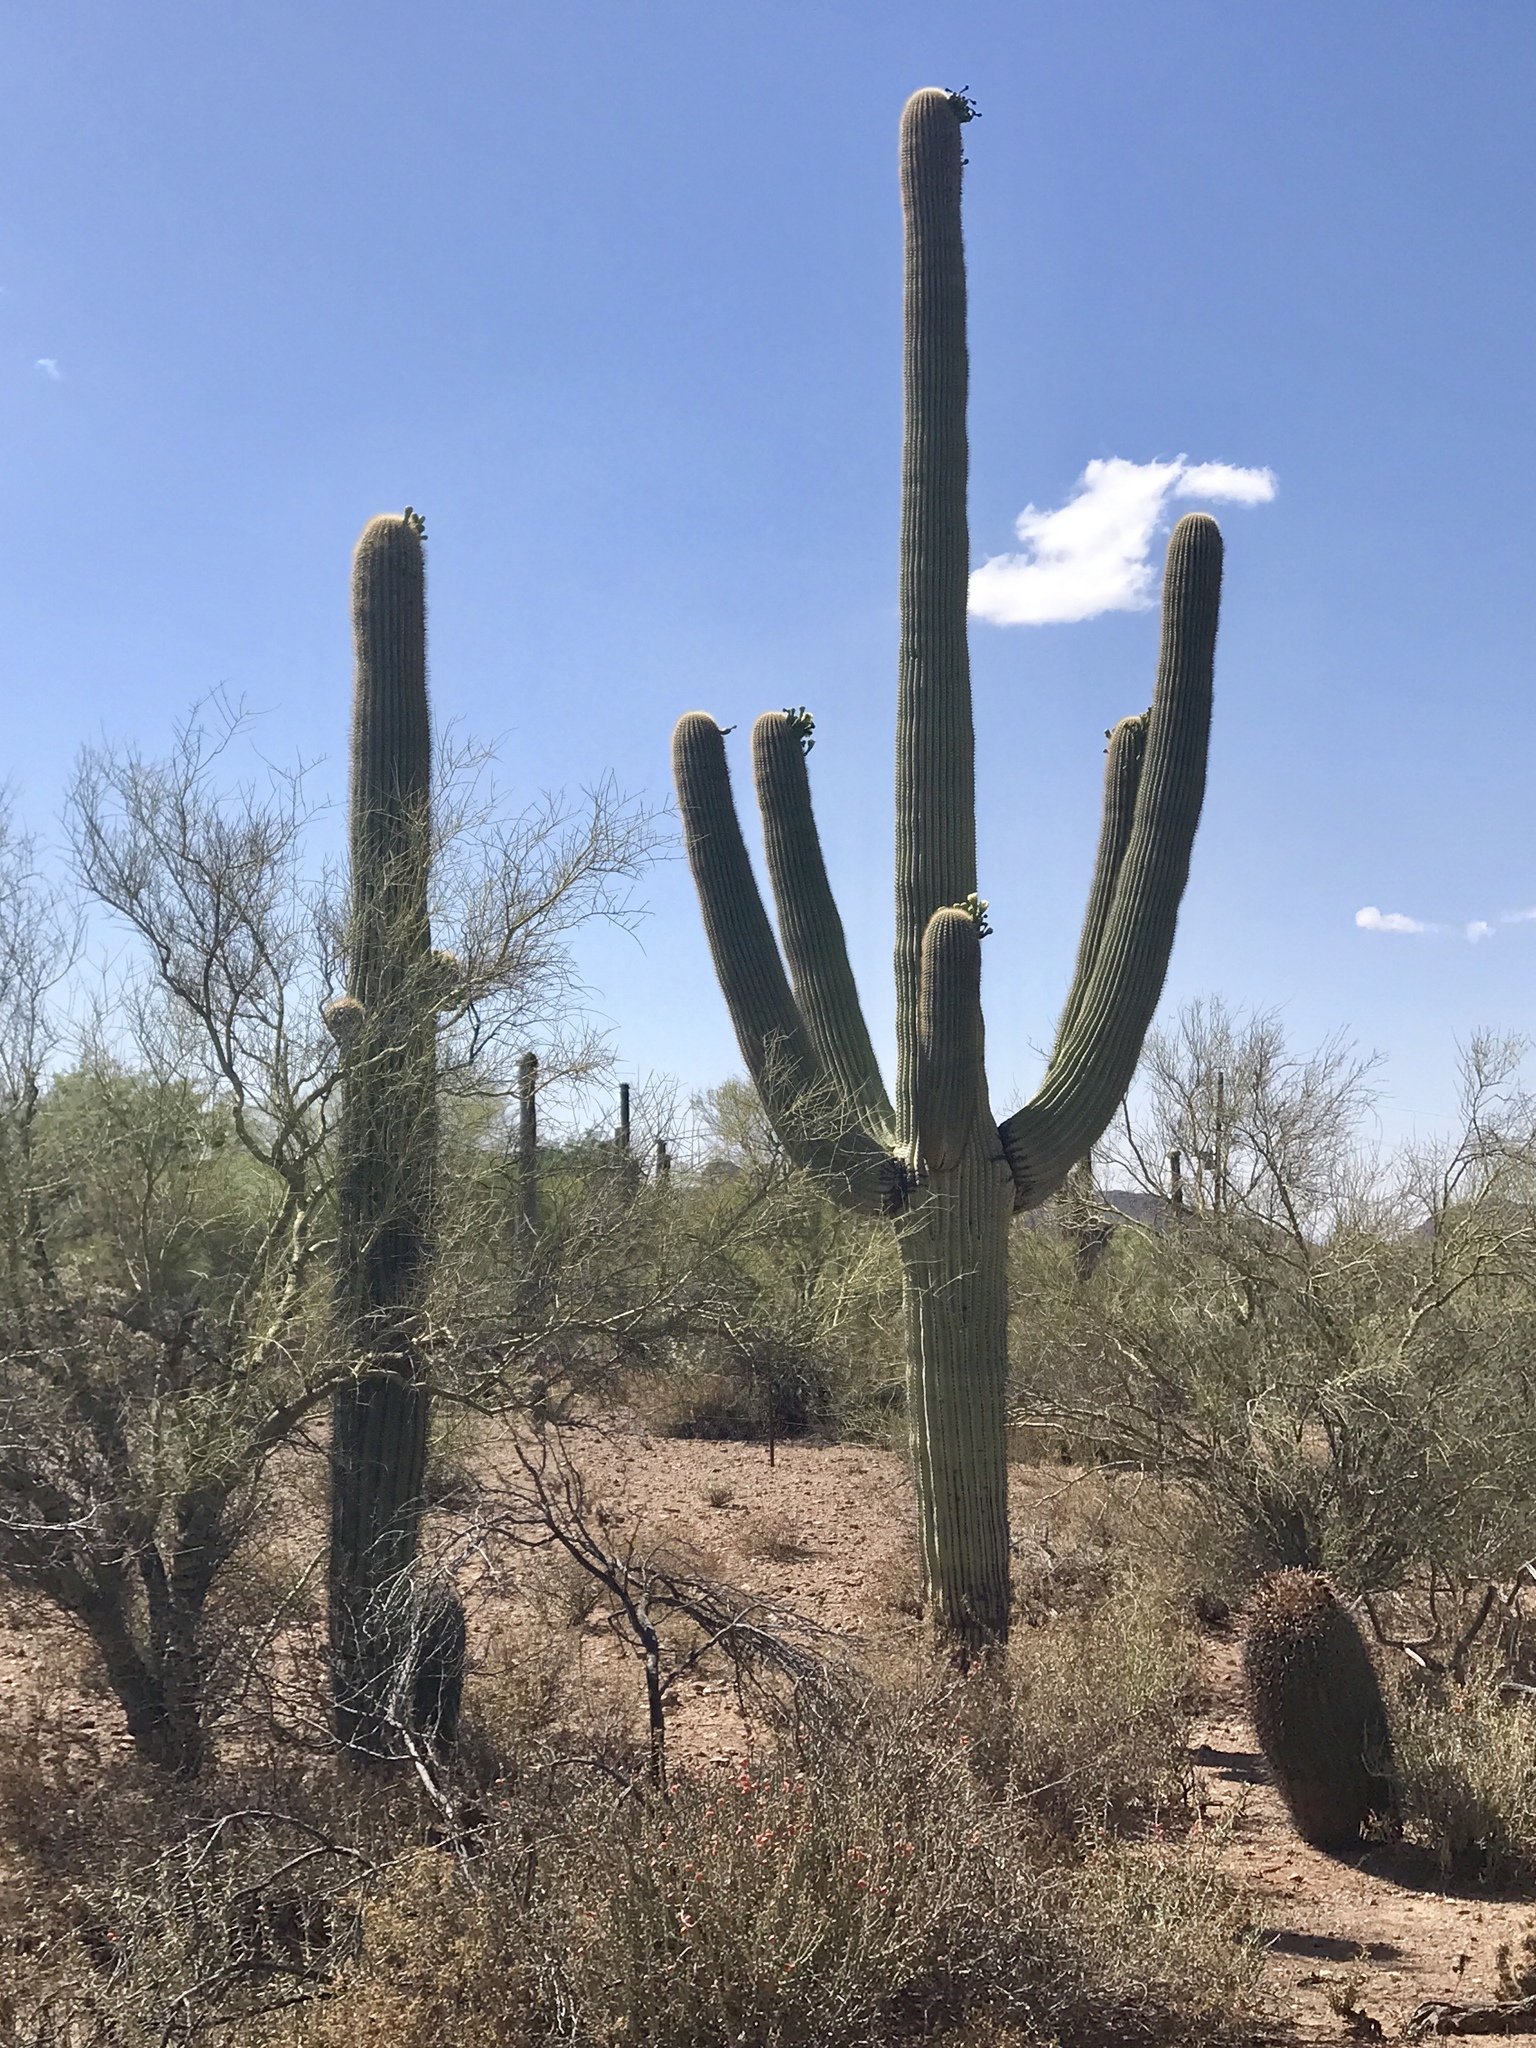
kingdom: Plantae
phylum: Tracheophyta
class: Magnoliopsida
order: Caryophyllales
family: Cactaceae
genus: Carnegiea
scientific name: Carnegiea gigantea
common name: Saguaro
